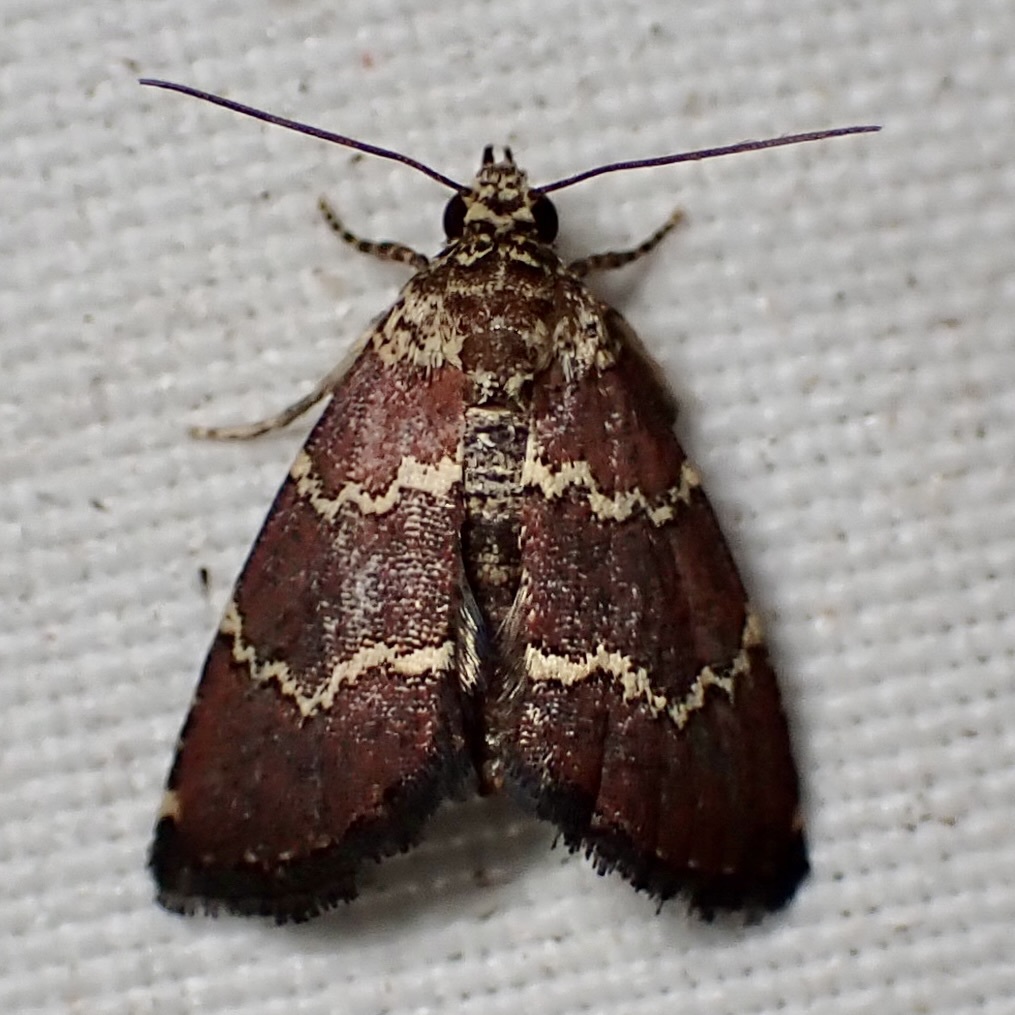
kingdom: Animalia
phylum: Arthropoda
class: Insecta
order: Lepidoptera
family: Noctuidae
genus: Phoenicophanta
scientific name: Phoenicophanta modestula
